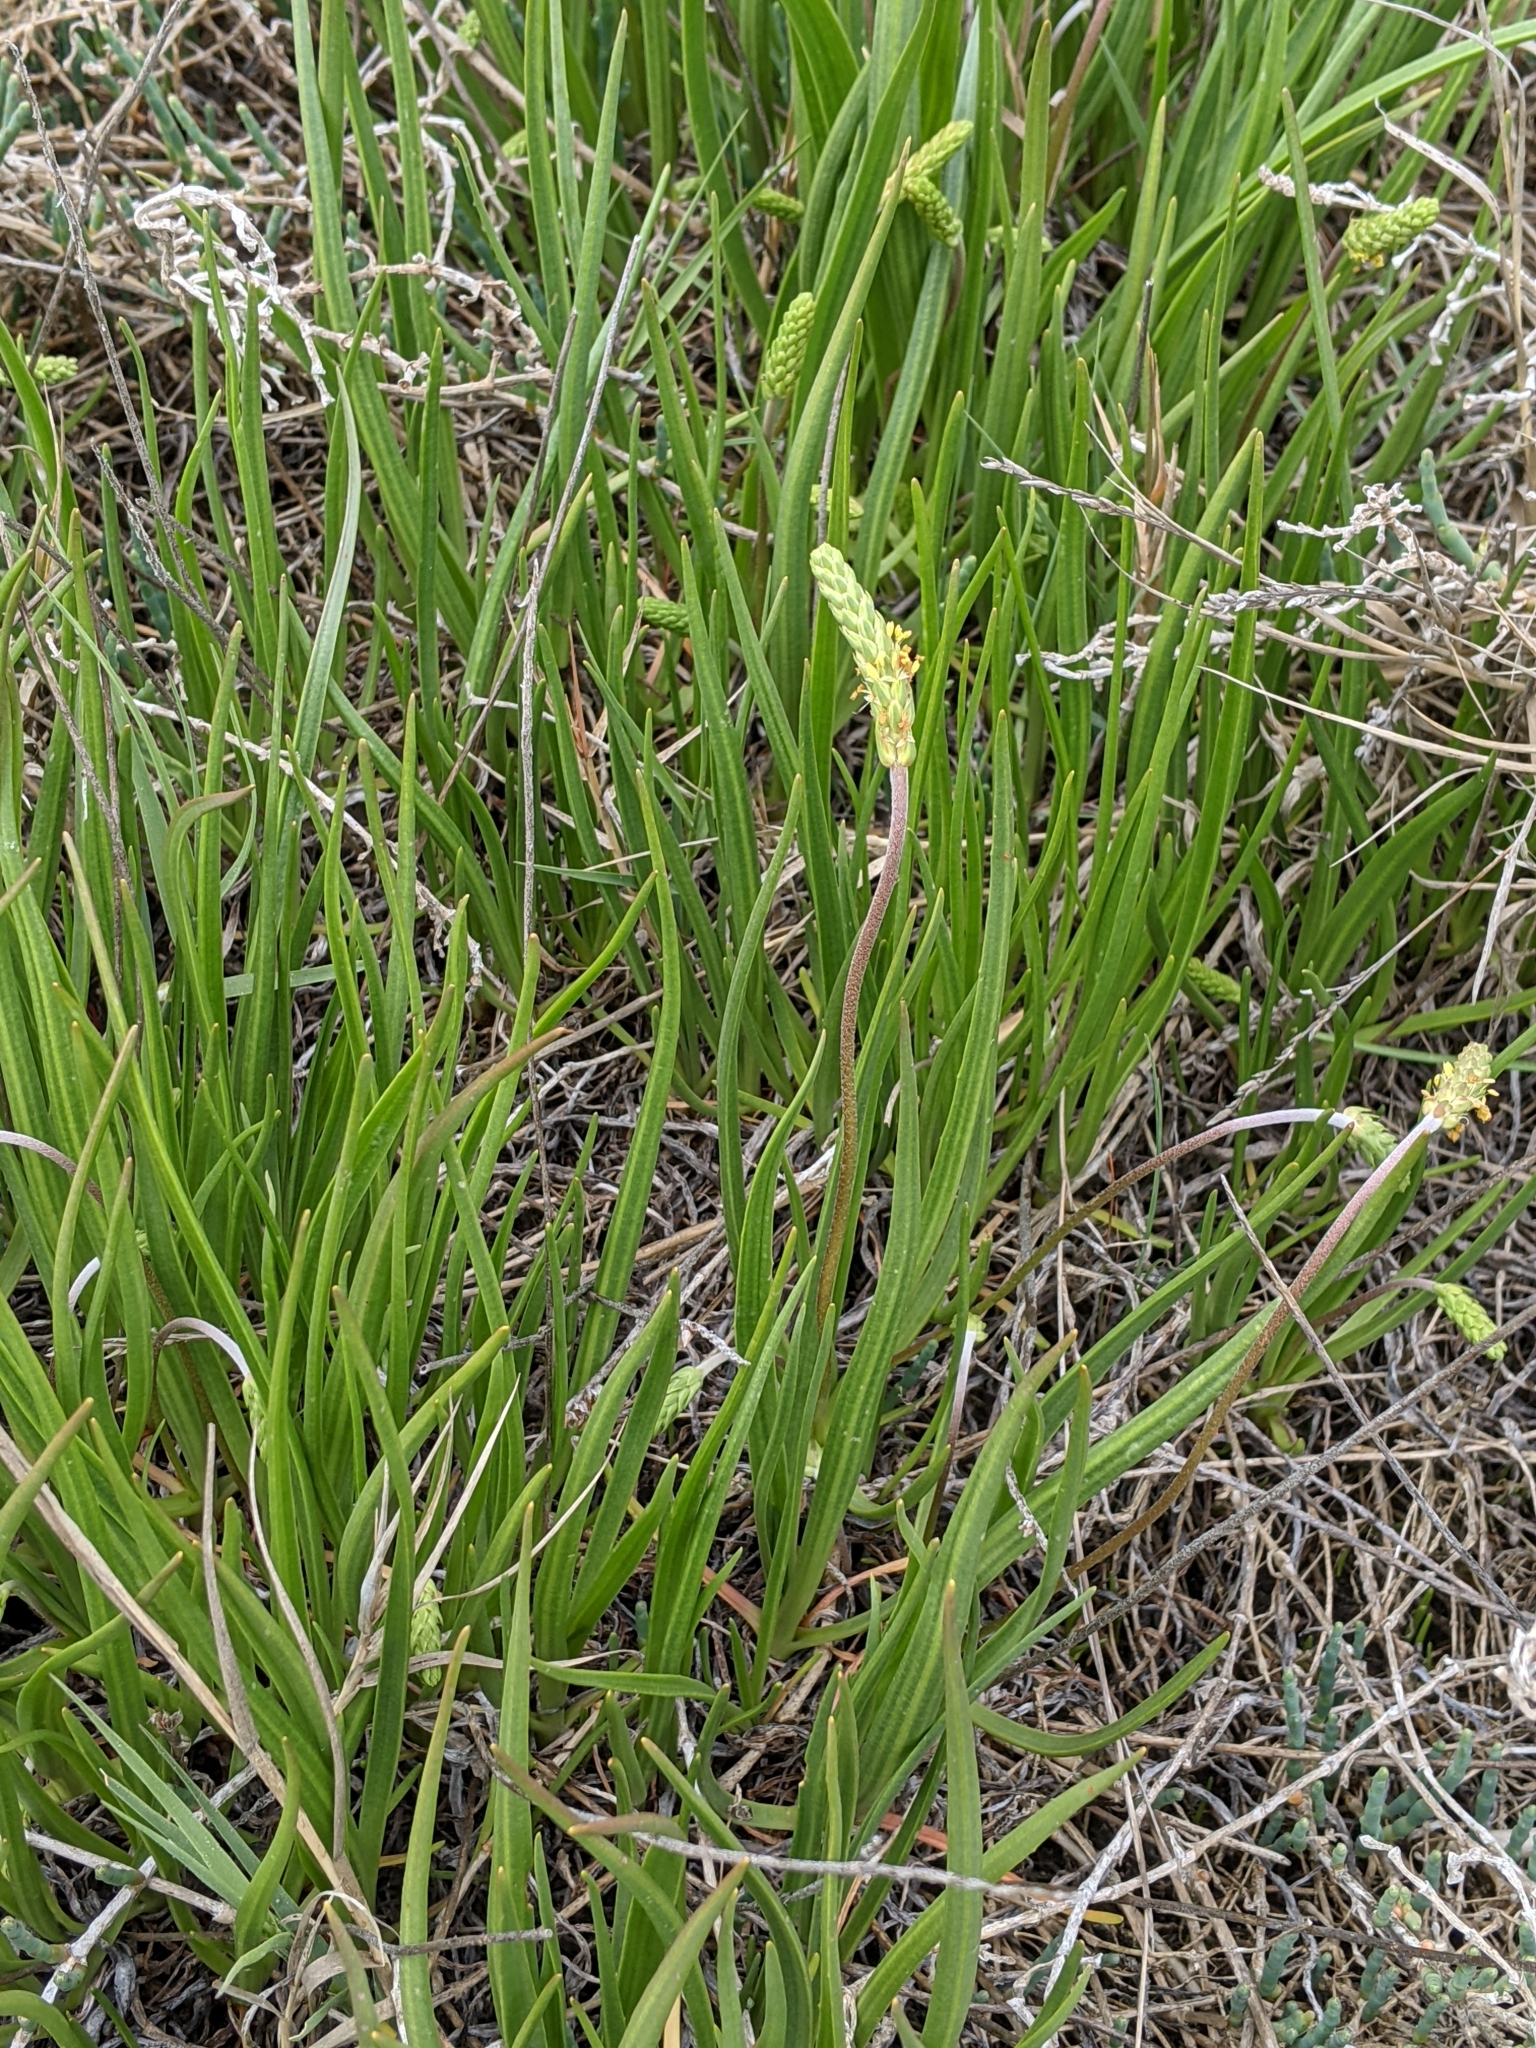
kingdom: Plantae
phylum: Tracheophyta
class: Magnoliopsida
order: Lamiales
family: Plantaginaceae
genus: Plantago
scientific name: Plantago maritima
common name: Sea plantain
